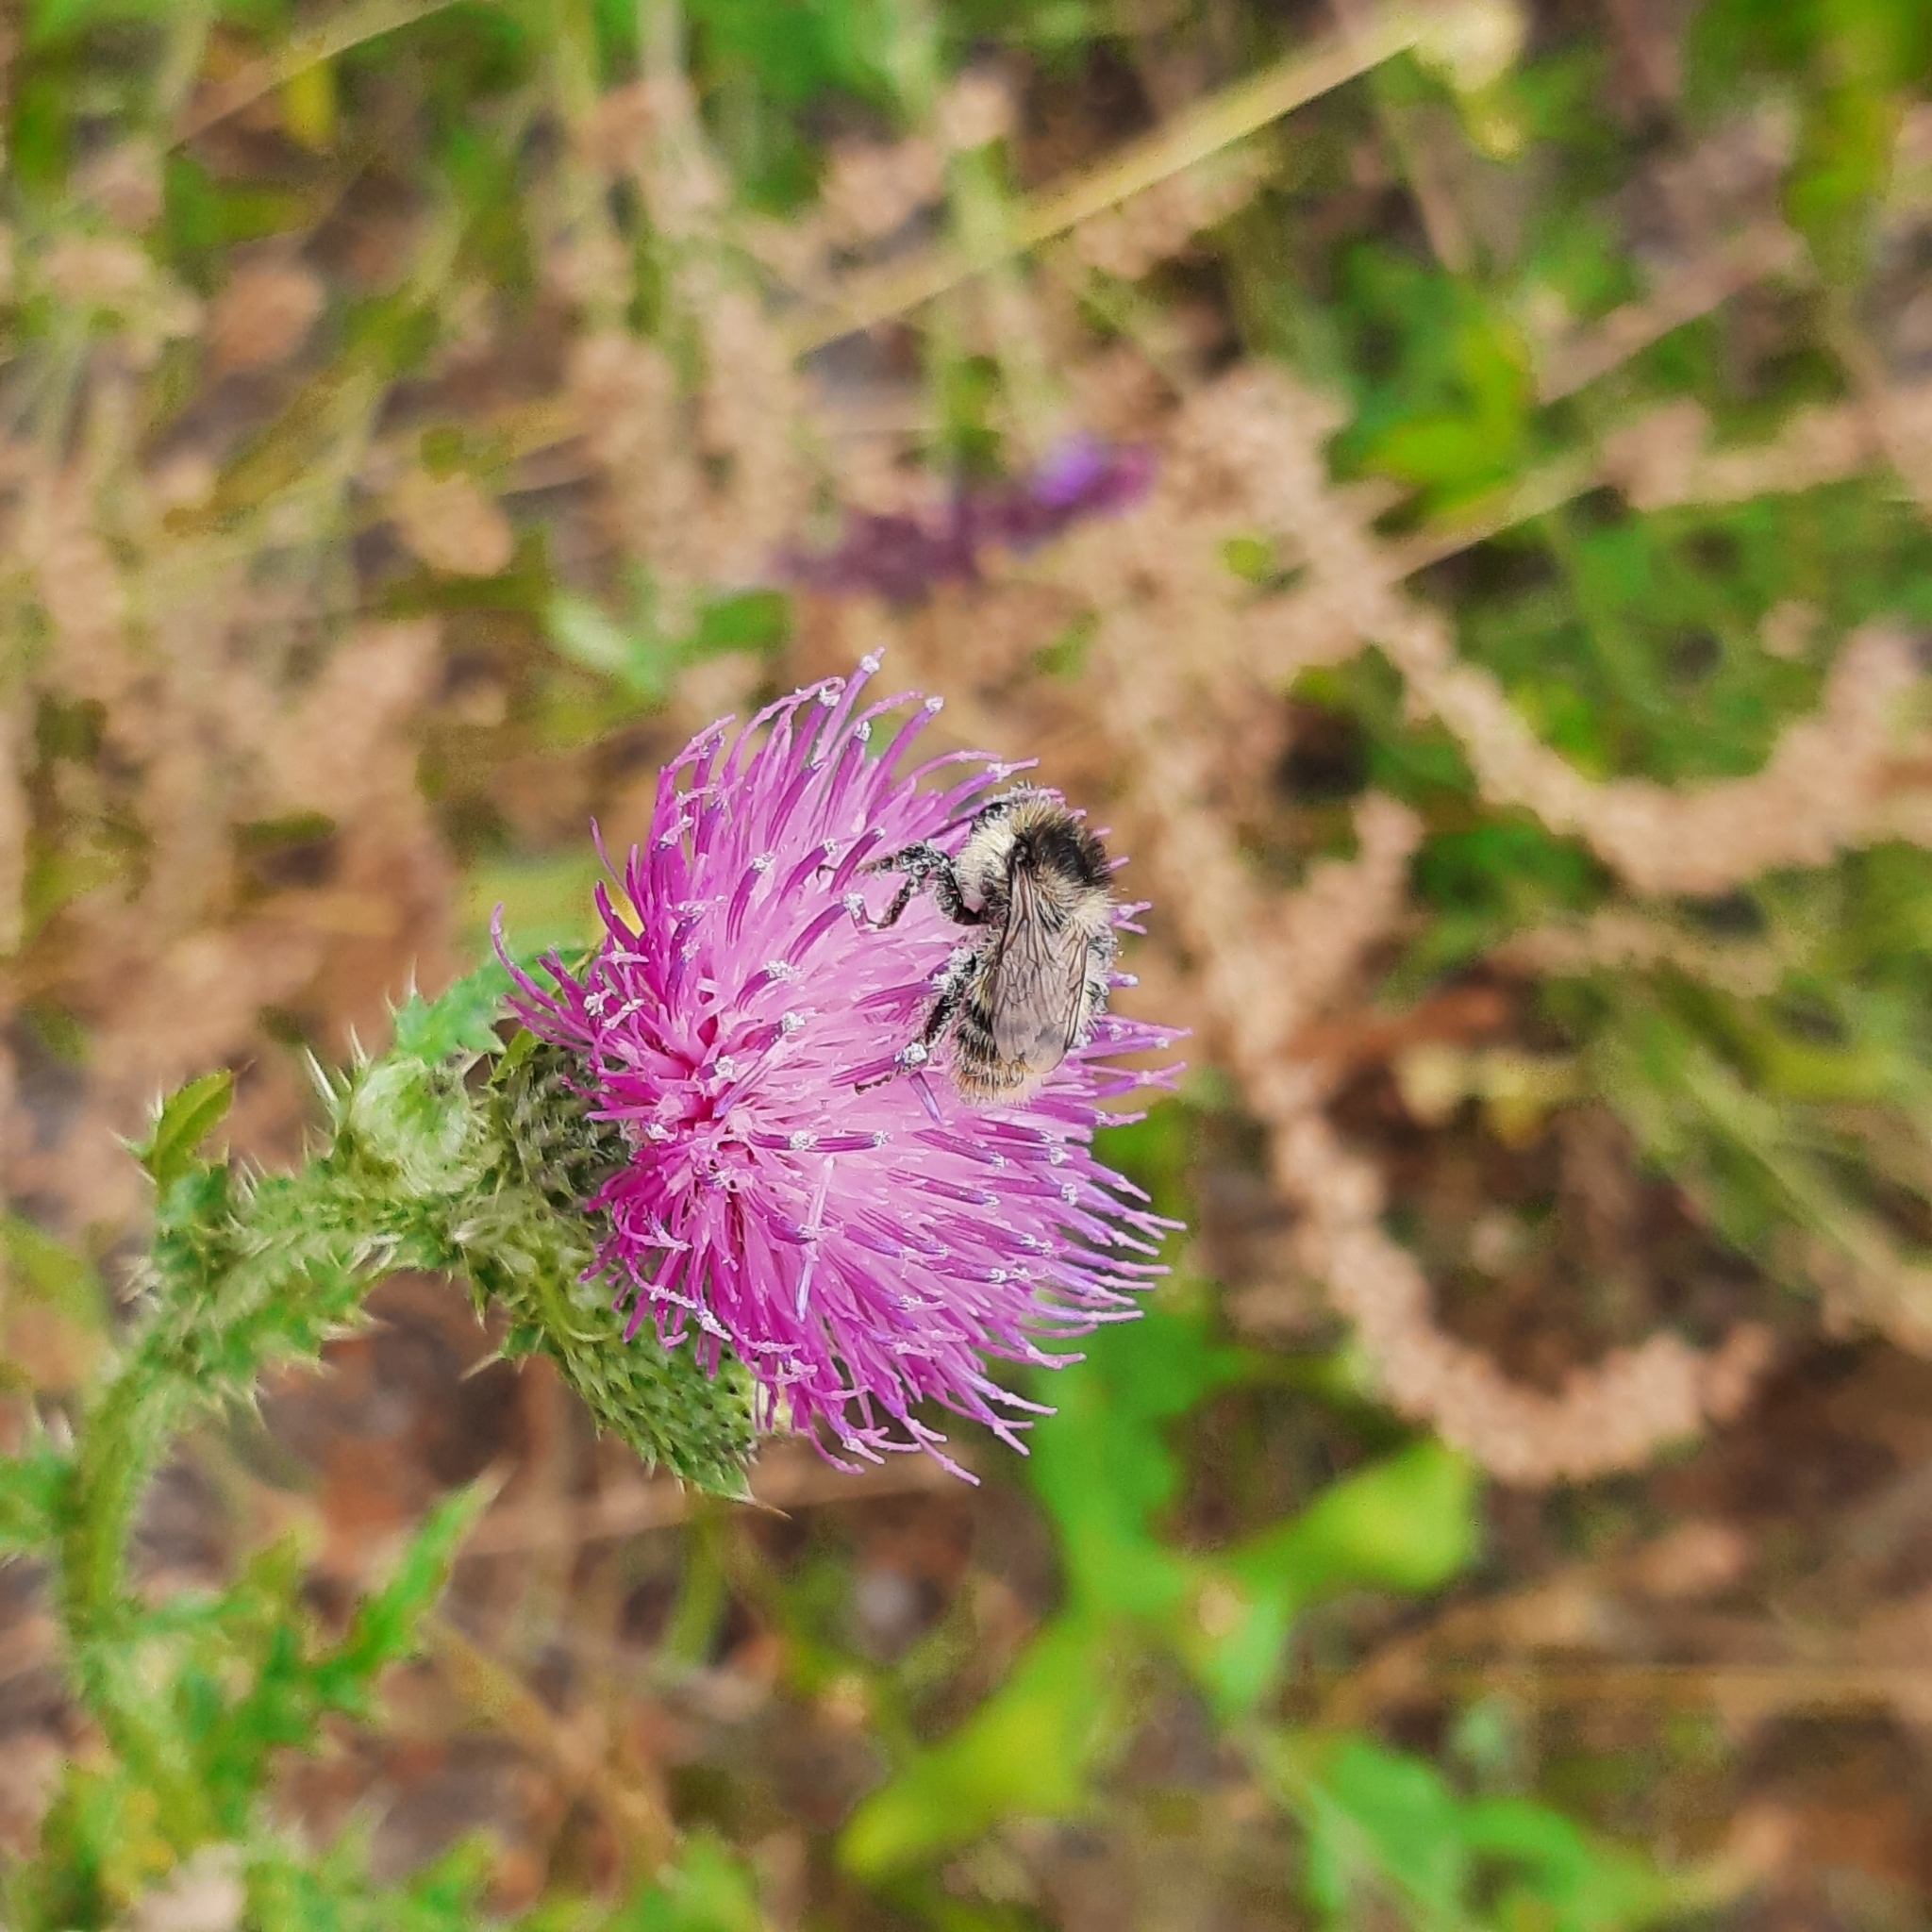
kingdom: Animalia
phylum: Arthropoda
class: Insecta
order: Hymenoptera
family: Apidae
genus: Bombus
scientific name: Bombus sylvarum
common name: Shrill carder bee
